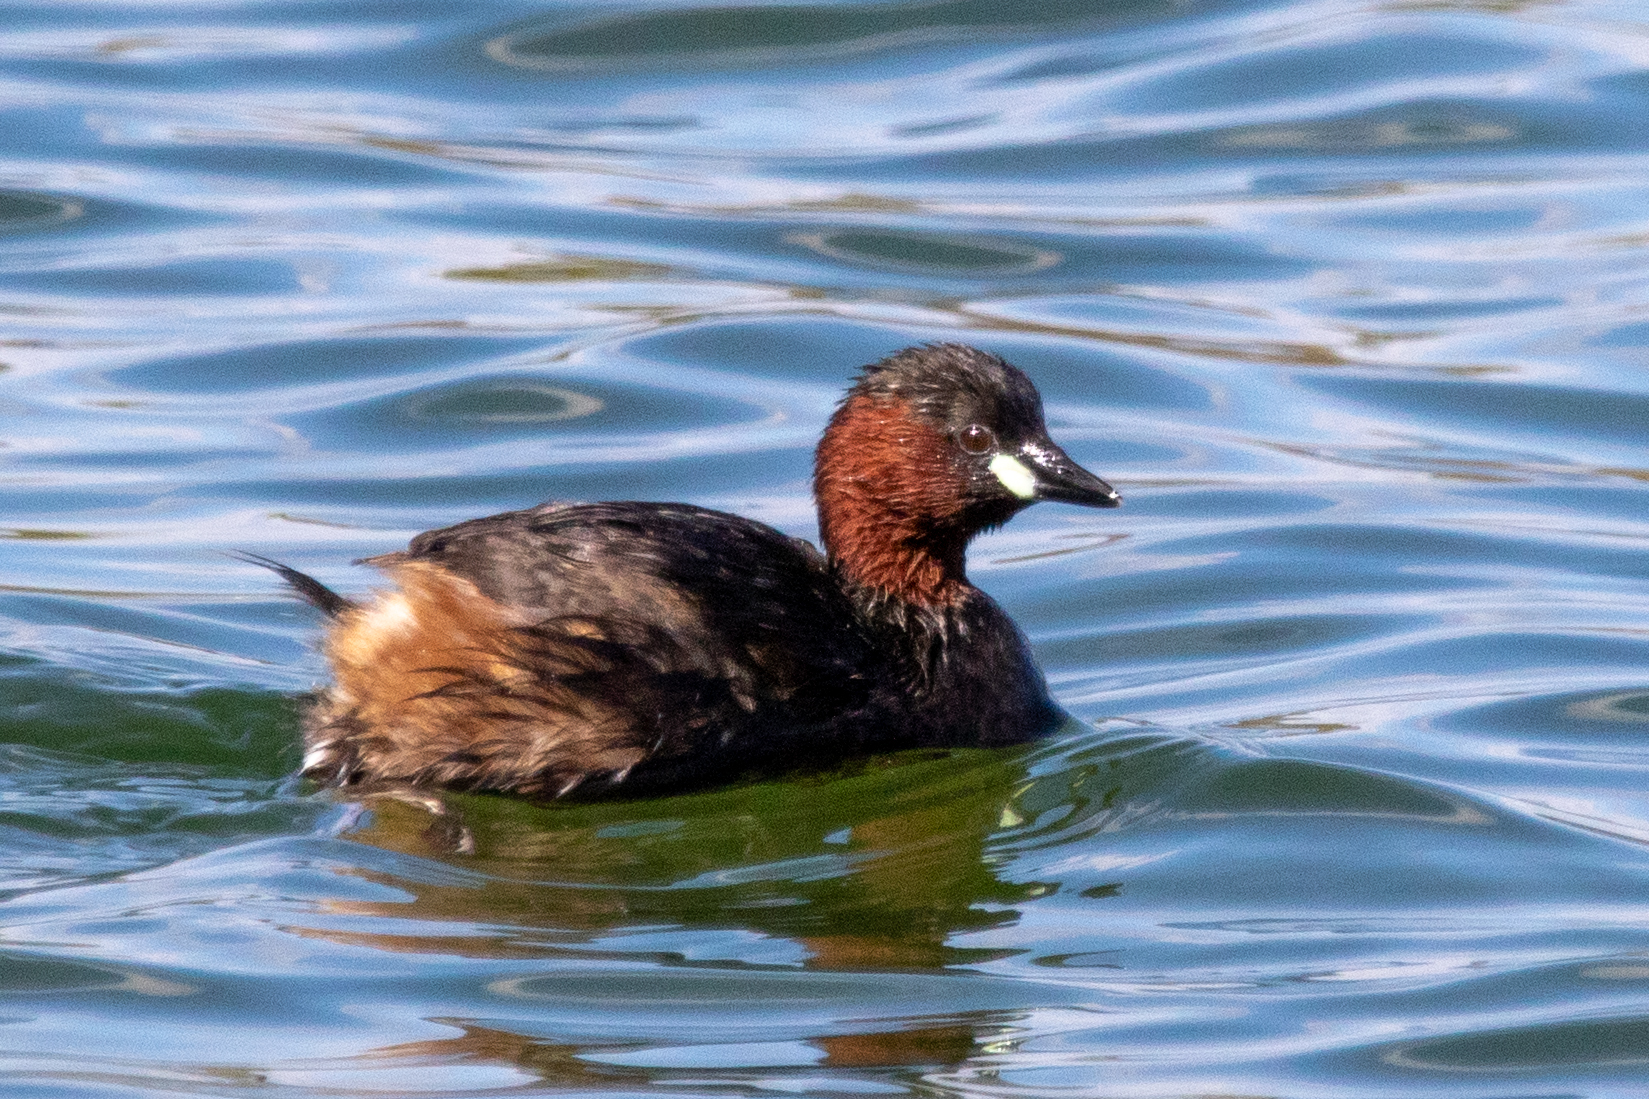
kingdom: Animalia
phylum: Chordata
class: Aves
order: Podicipediformes
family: Podicipedidae
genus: Tachybaptus
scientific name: Tachybaptus ruficollis
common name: Little grebe
